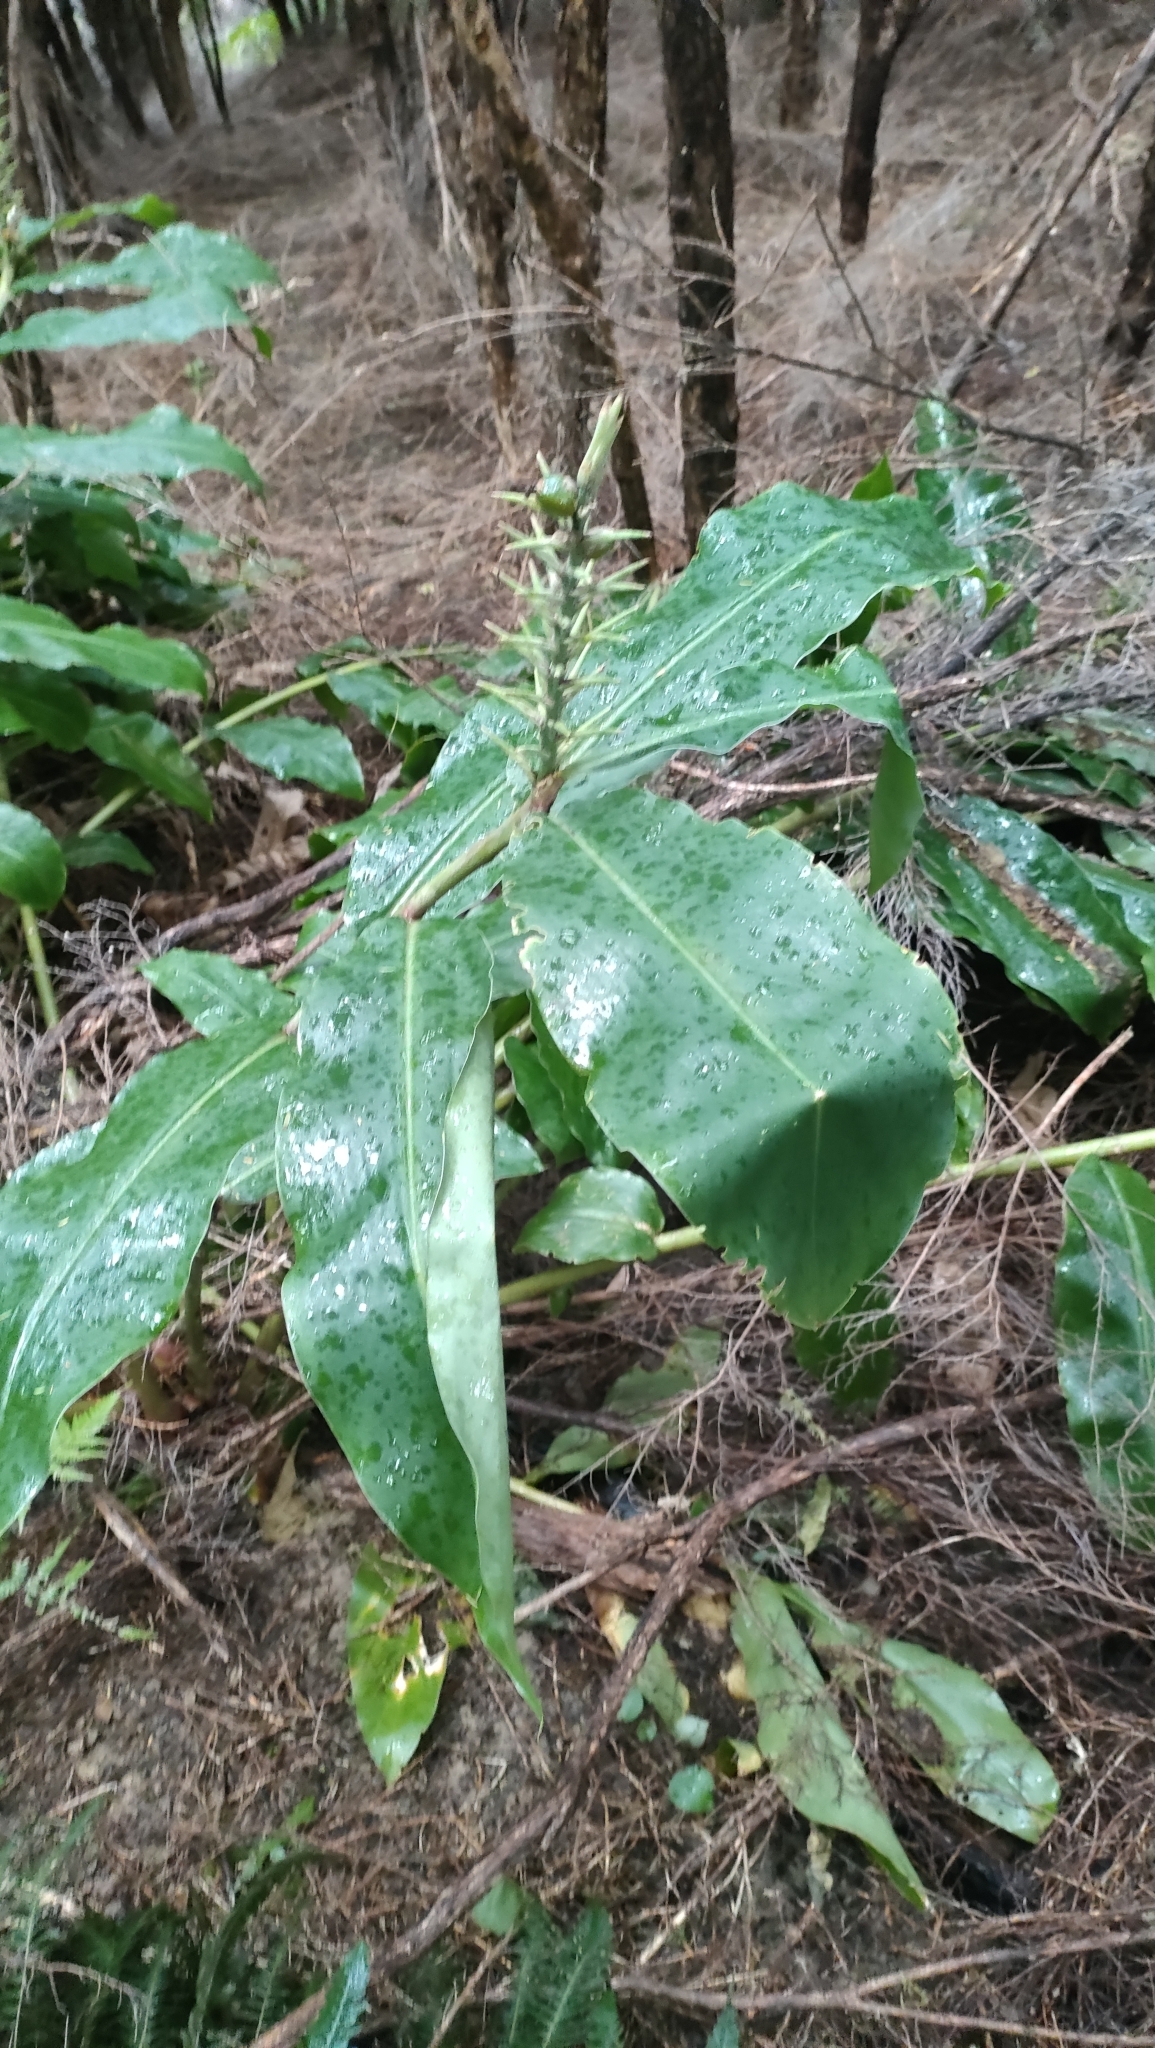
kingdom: Plantae
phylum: Tracheophyta
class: Liliopsida
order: Zingiberales
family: Zingiberaceae
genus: Hedychium
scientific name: Hedychium gardnerianum
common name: Himalayan ginger
